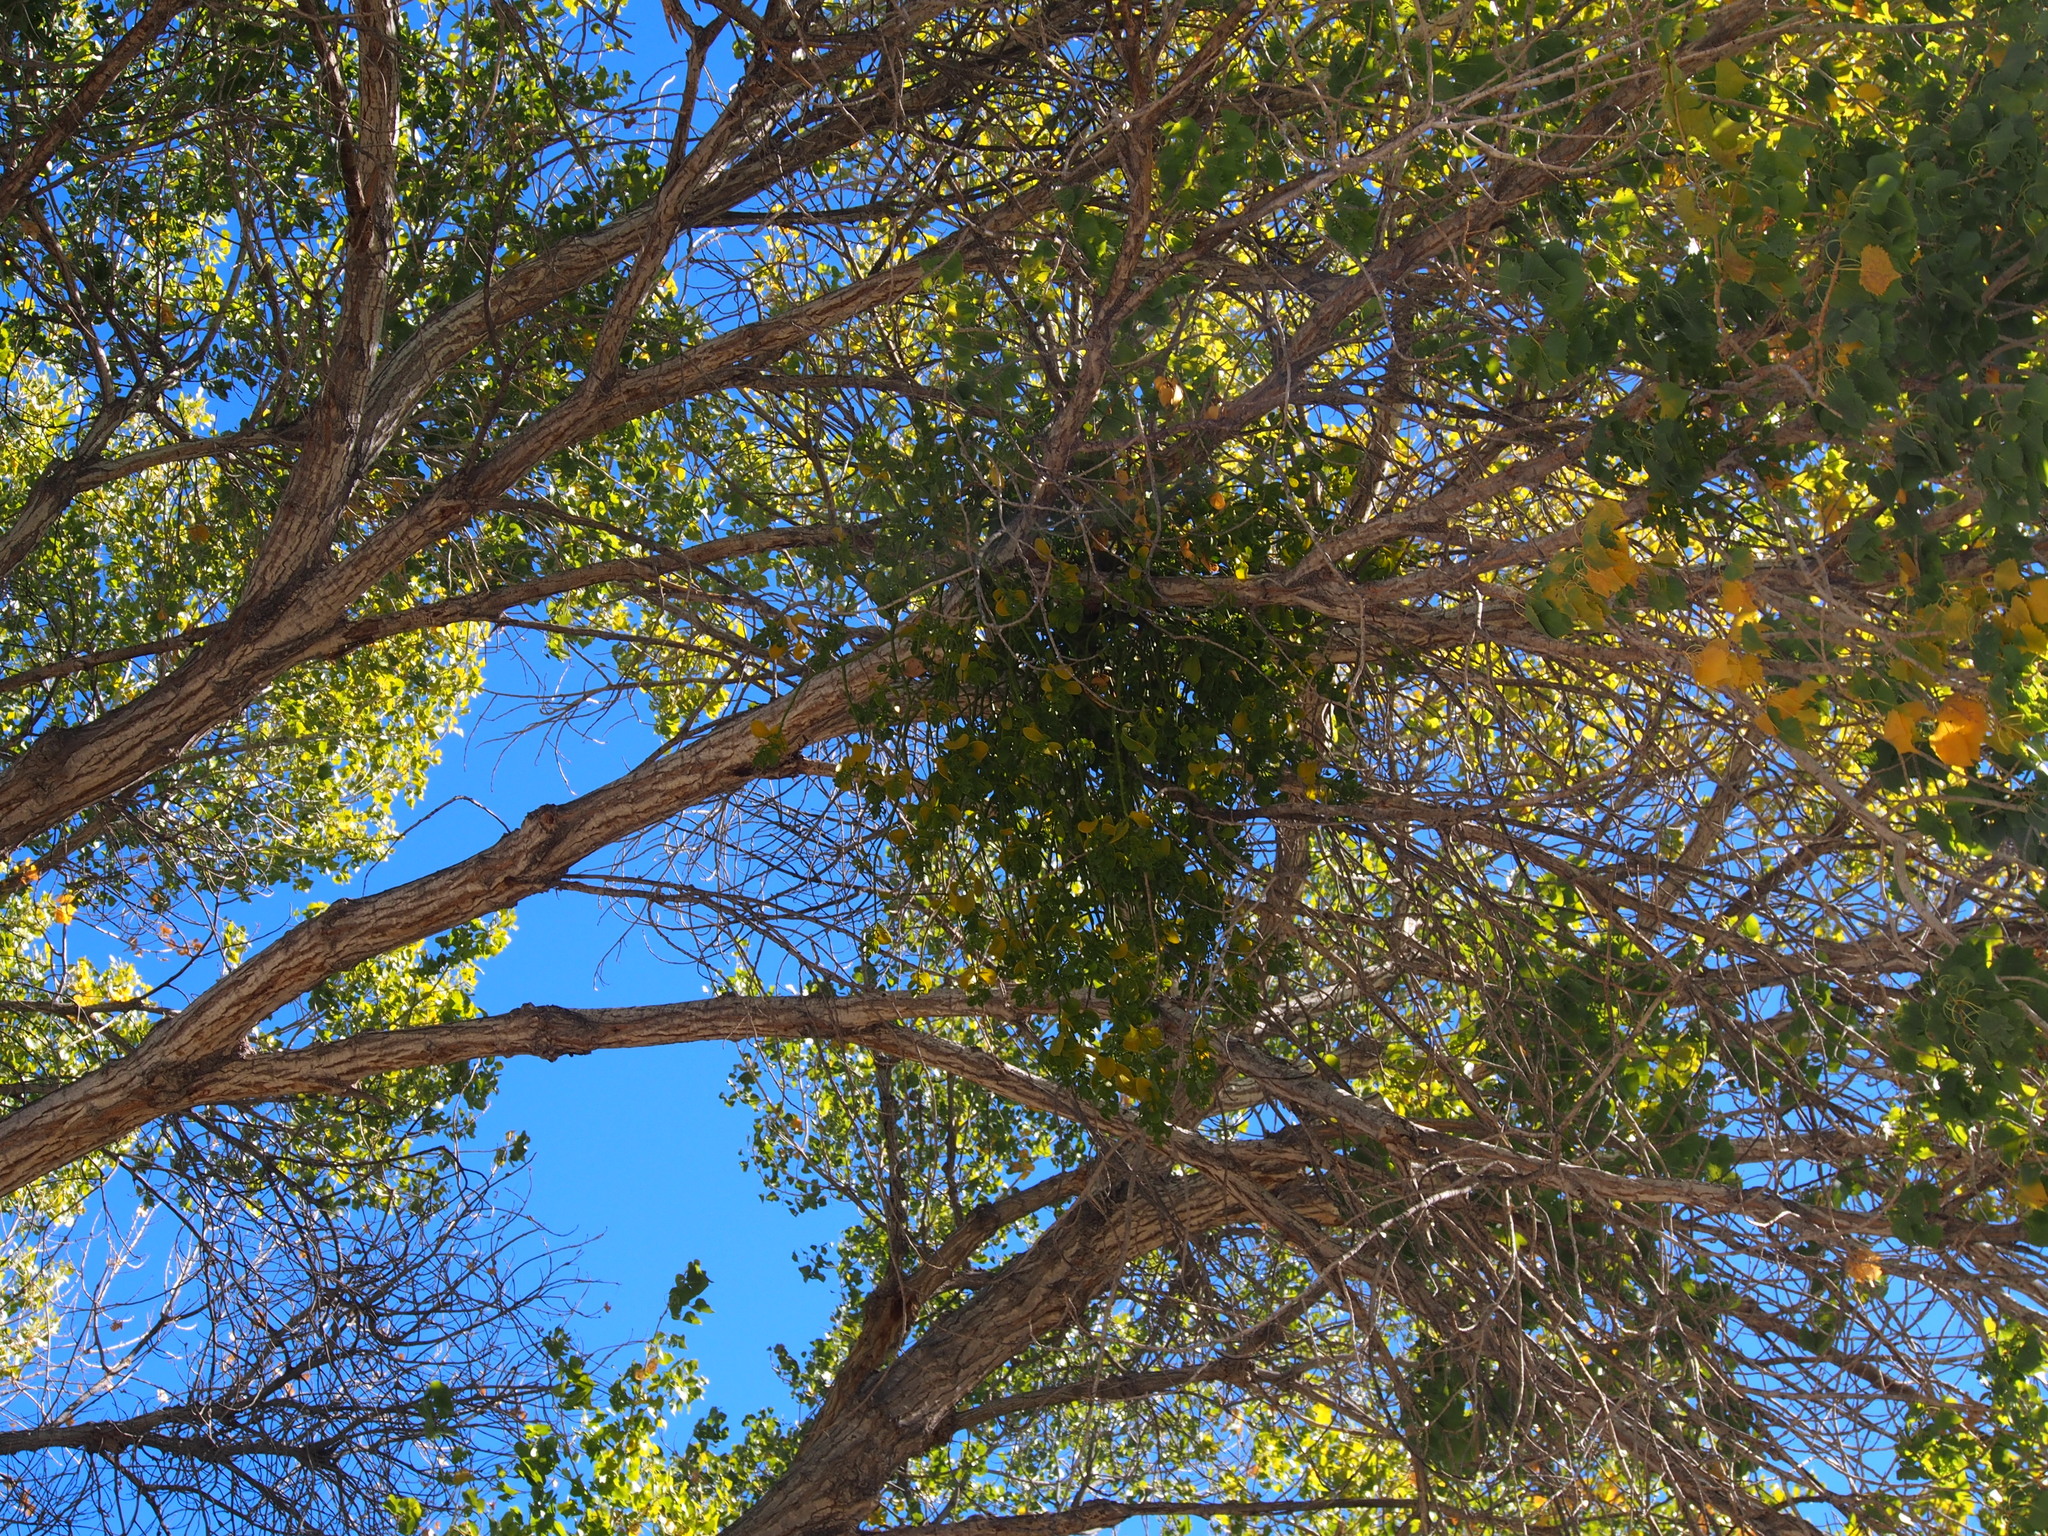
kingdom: Plantae
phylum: Tracheophyta
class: Magnoliopsida
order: Santalales
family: Viscaceae
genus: Phoradendron
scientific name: Phoradendron
